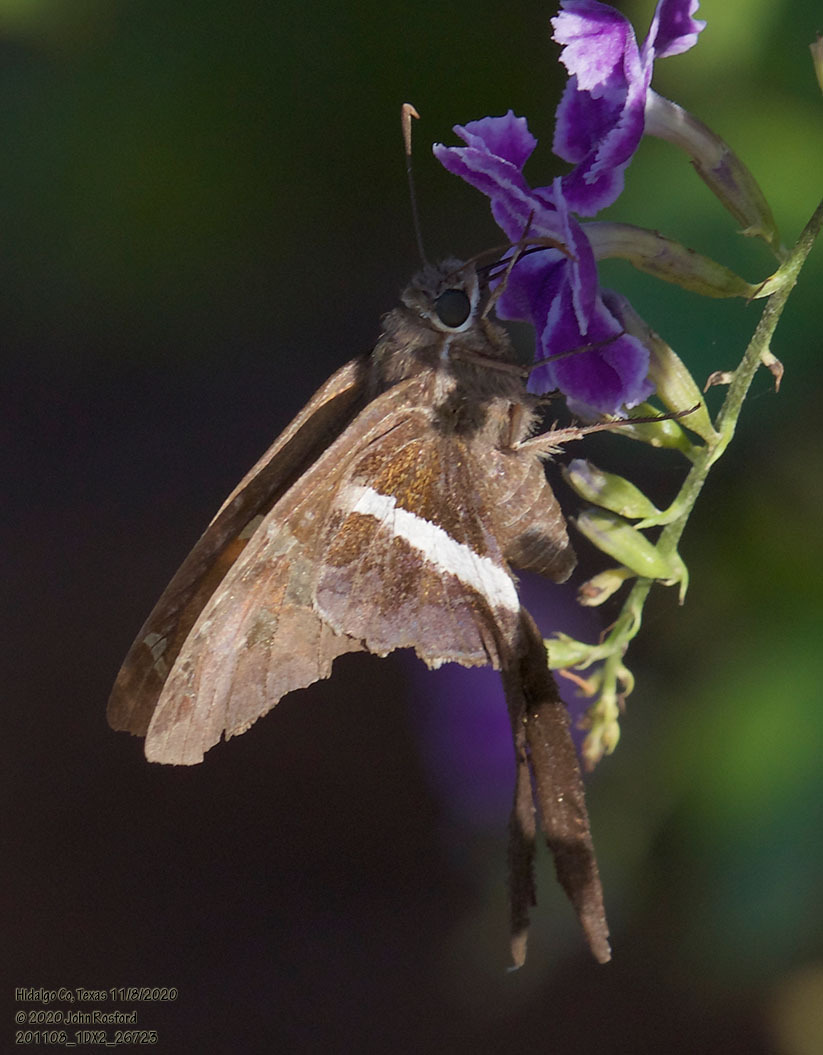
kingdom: Animalia
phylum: Arthropoda
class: Insecta
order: Lepidoptera
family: Hesperiidae
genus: Chioides
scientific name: Chioides catillus
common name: Silverbanded skipper
